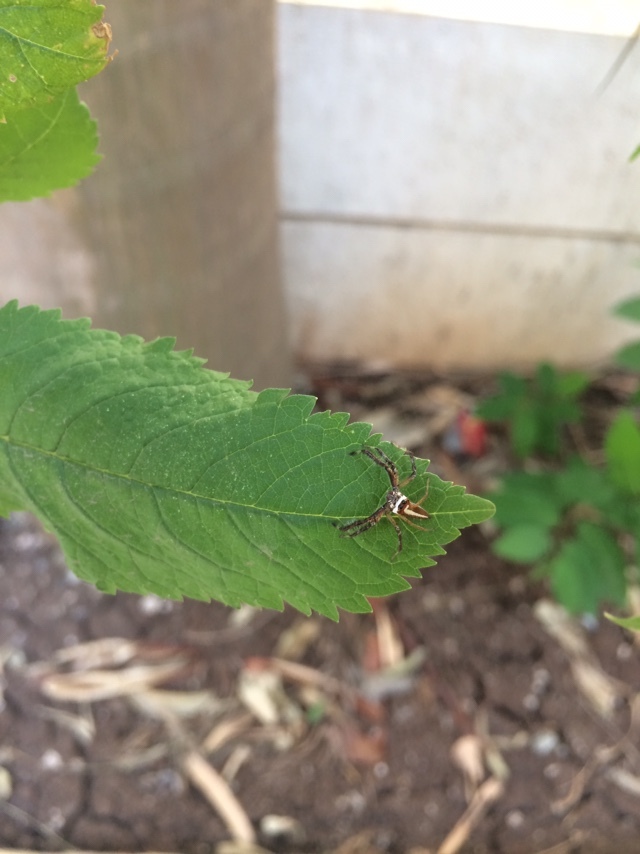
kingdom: Animalia
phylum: Arthropoda
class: Arachnida
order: Araneae
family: Salticidae
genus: Telamonia
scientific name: Telamonia dimidiata
